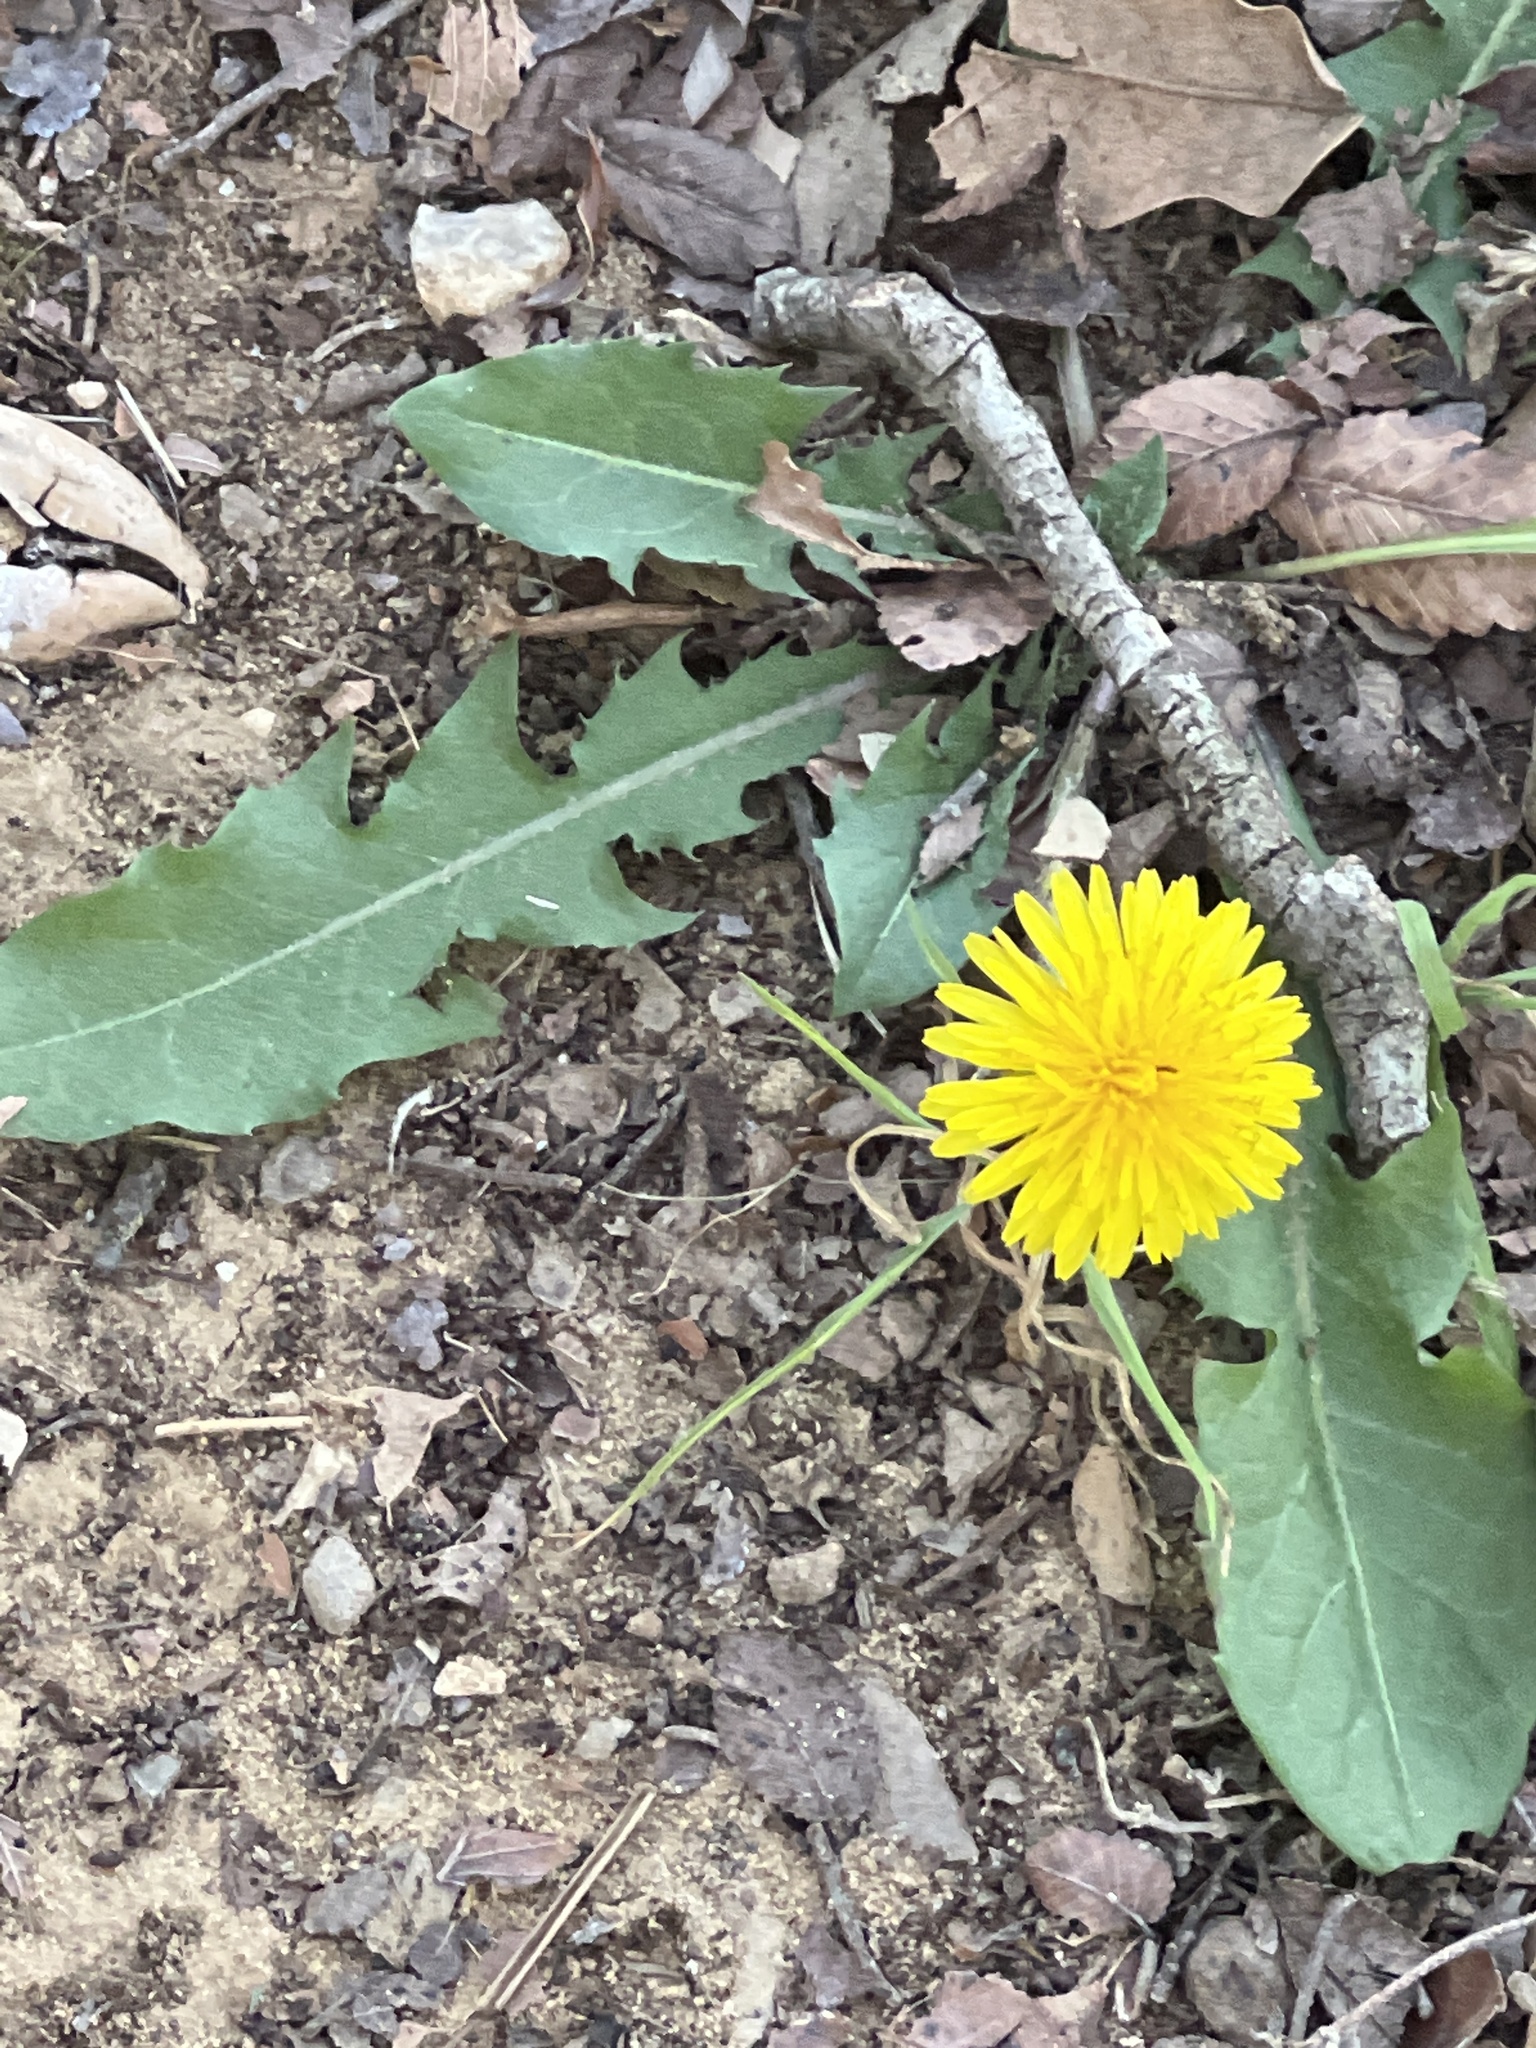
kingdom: Plantae
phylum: Tracheophyta
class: Magnoliopsida
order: Asterales
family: Asteraceae
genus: Taraxacum
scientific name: Taraxacum officinale
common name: Common dandelion
